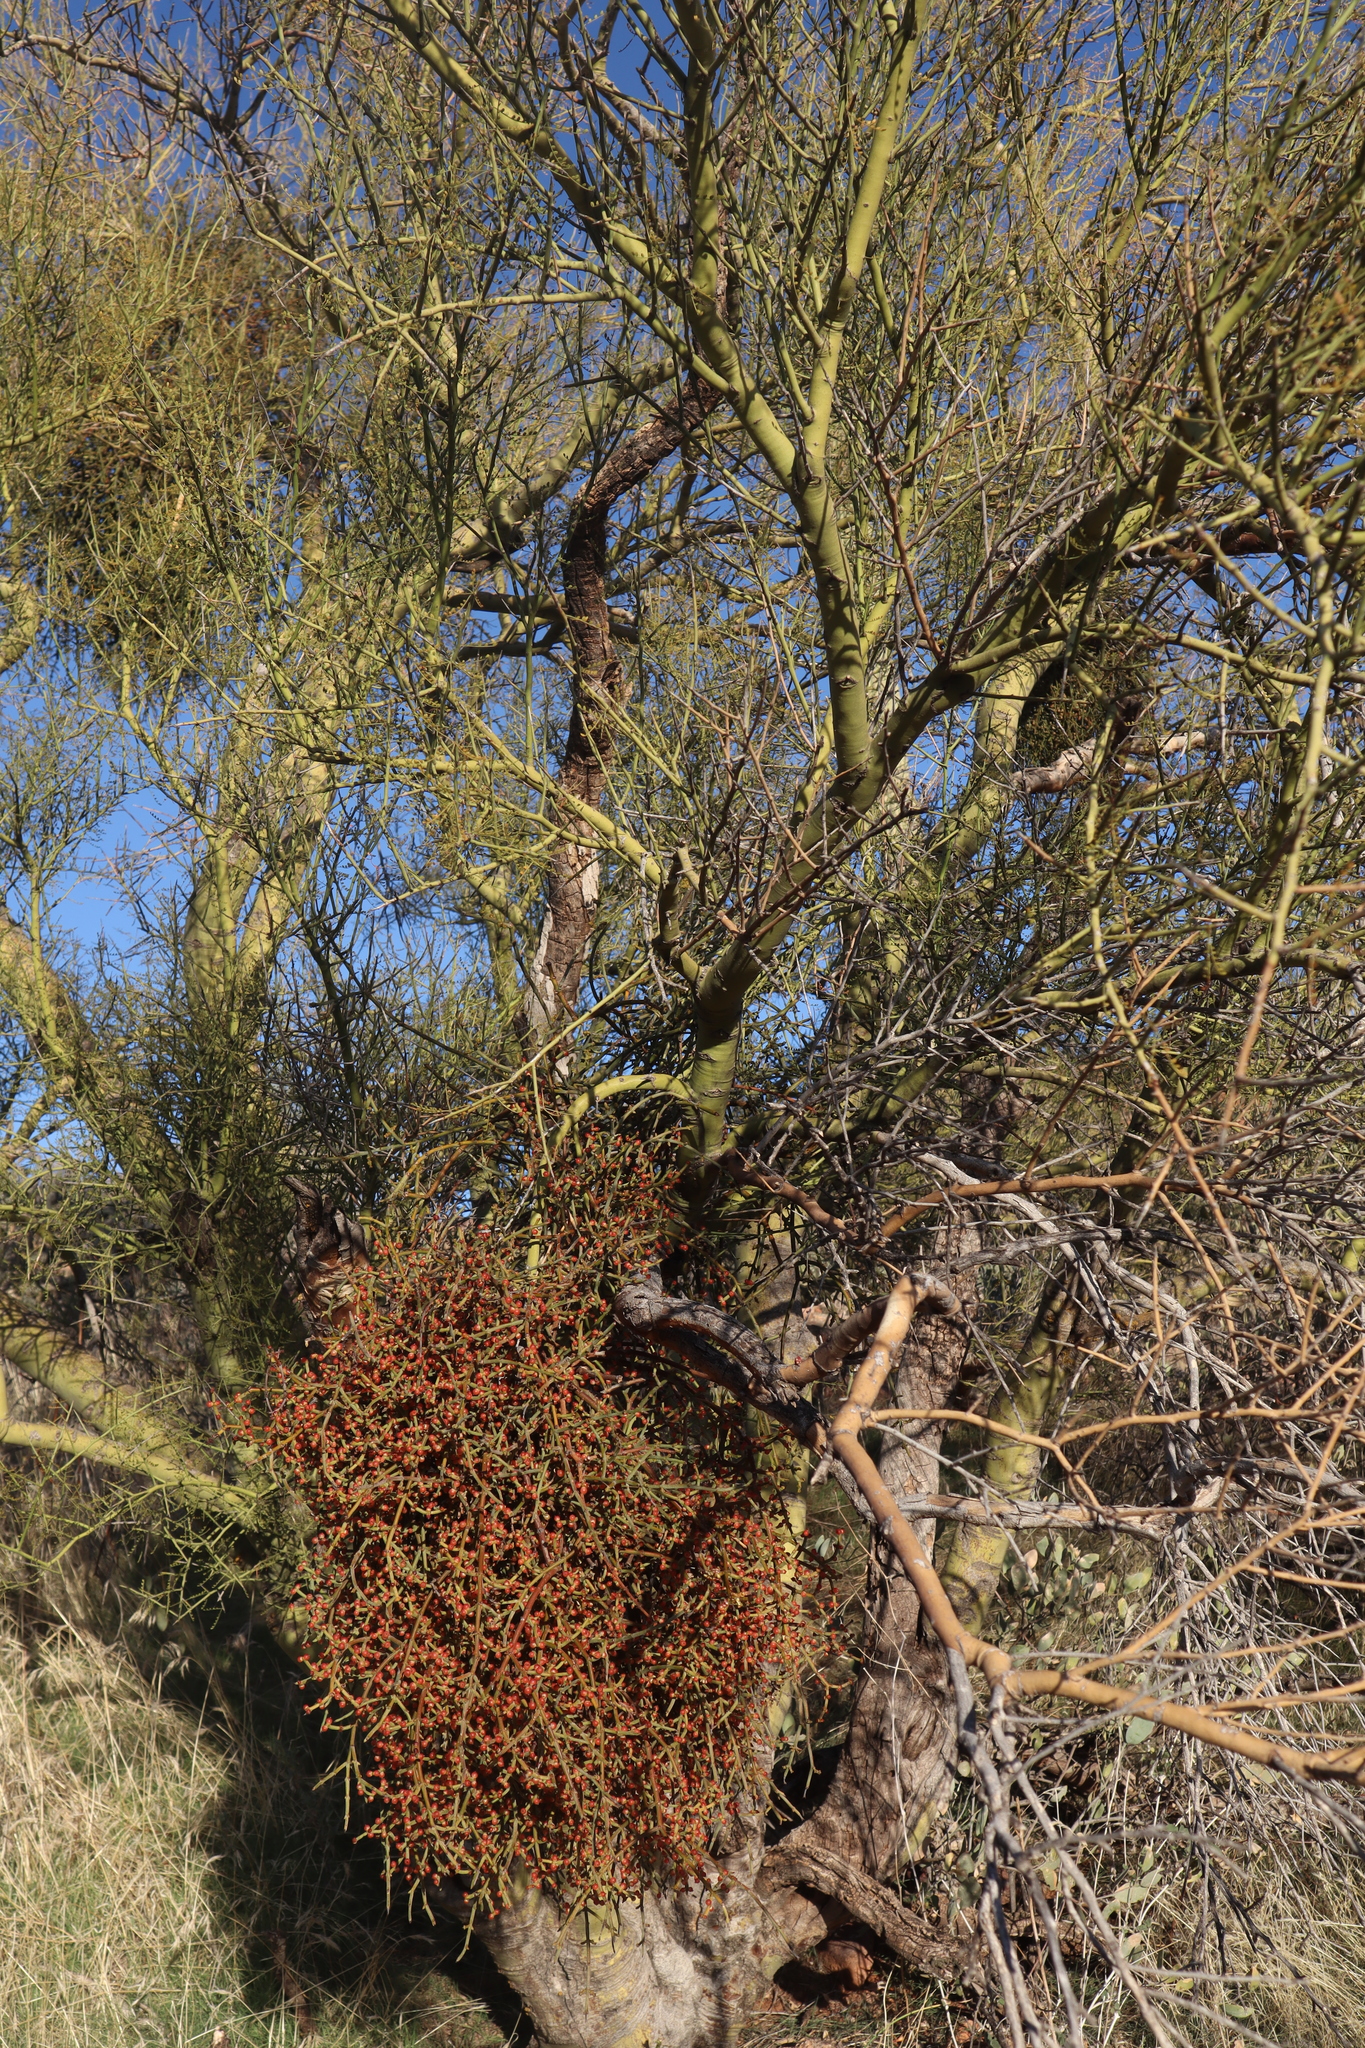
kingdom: Plantae
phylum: Tracheophyta
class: Magnoliopsida
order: Santalales
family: Viscaceae
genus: Phoradendron
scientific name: Phoradendron californicum
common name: Acacia mistletoe
